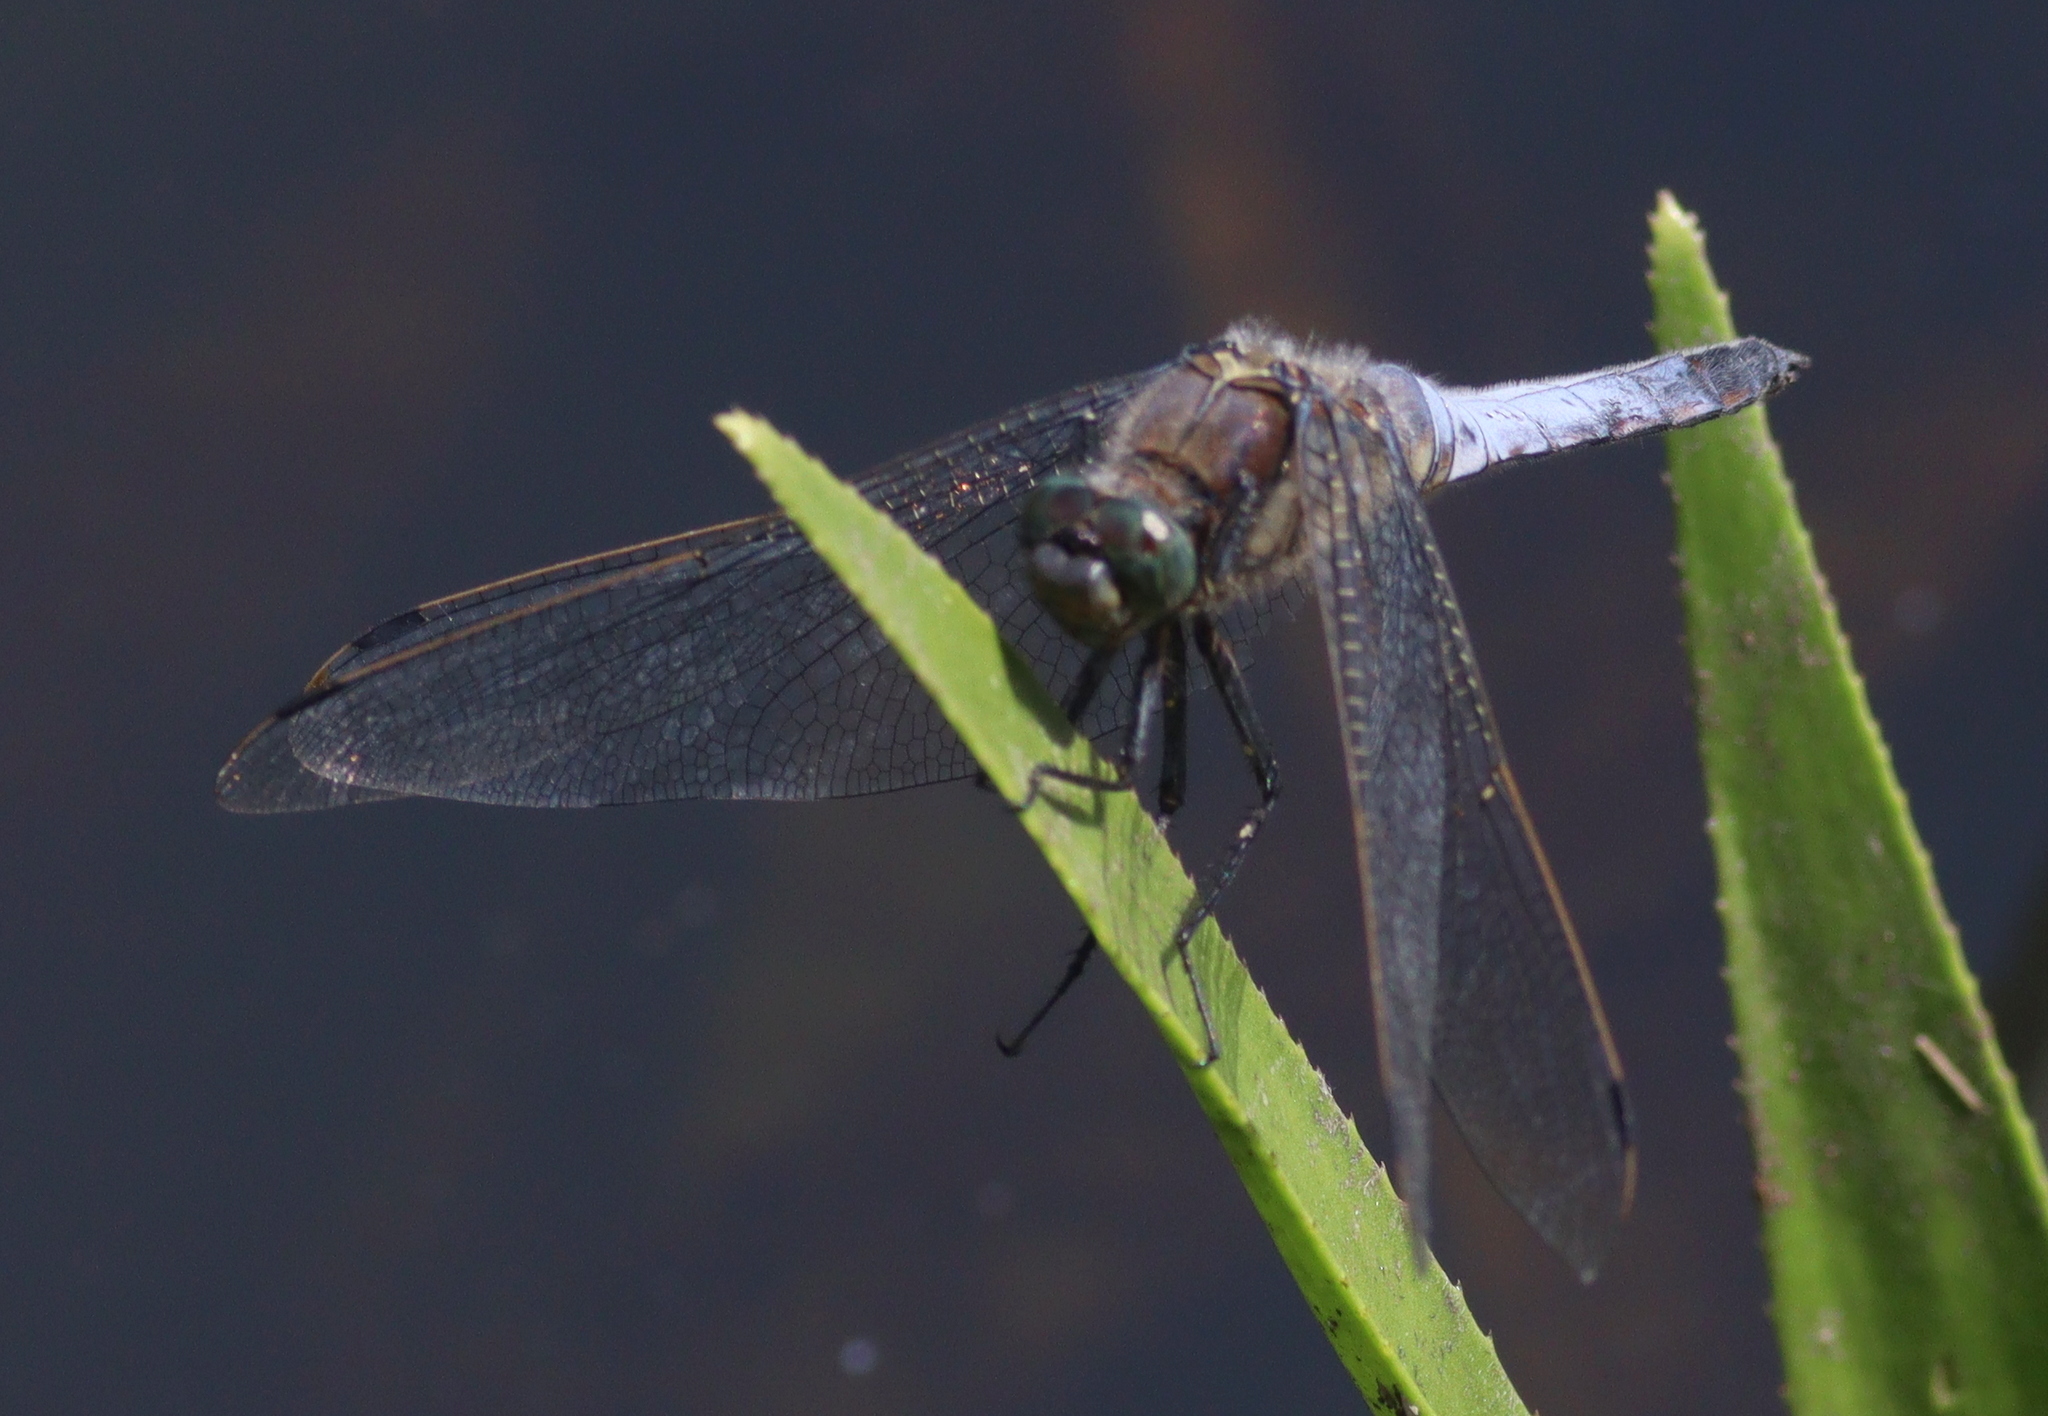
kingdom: Animalia
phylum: Arthropoda
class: Insecta
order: Odonata
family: Libellulidae
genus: Orthetrum
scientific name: Orthetrum cancellatum
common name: Black-tailed skimmer
